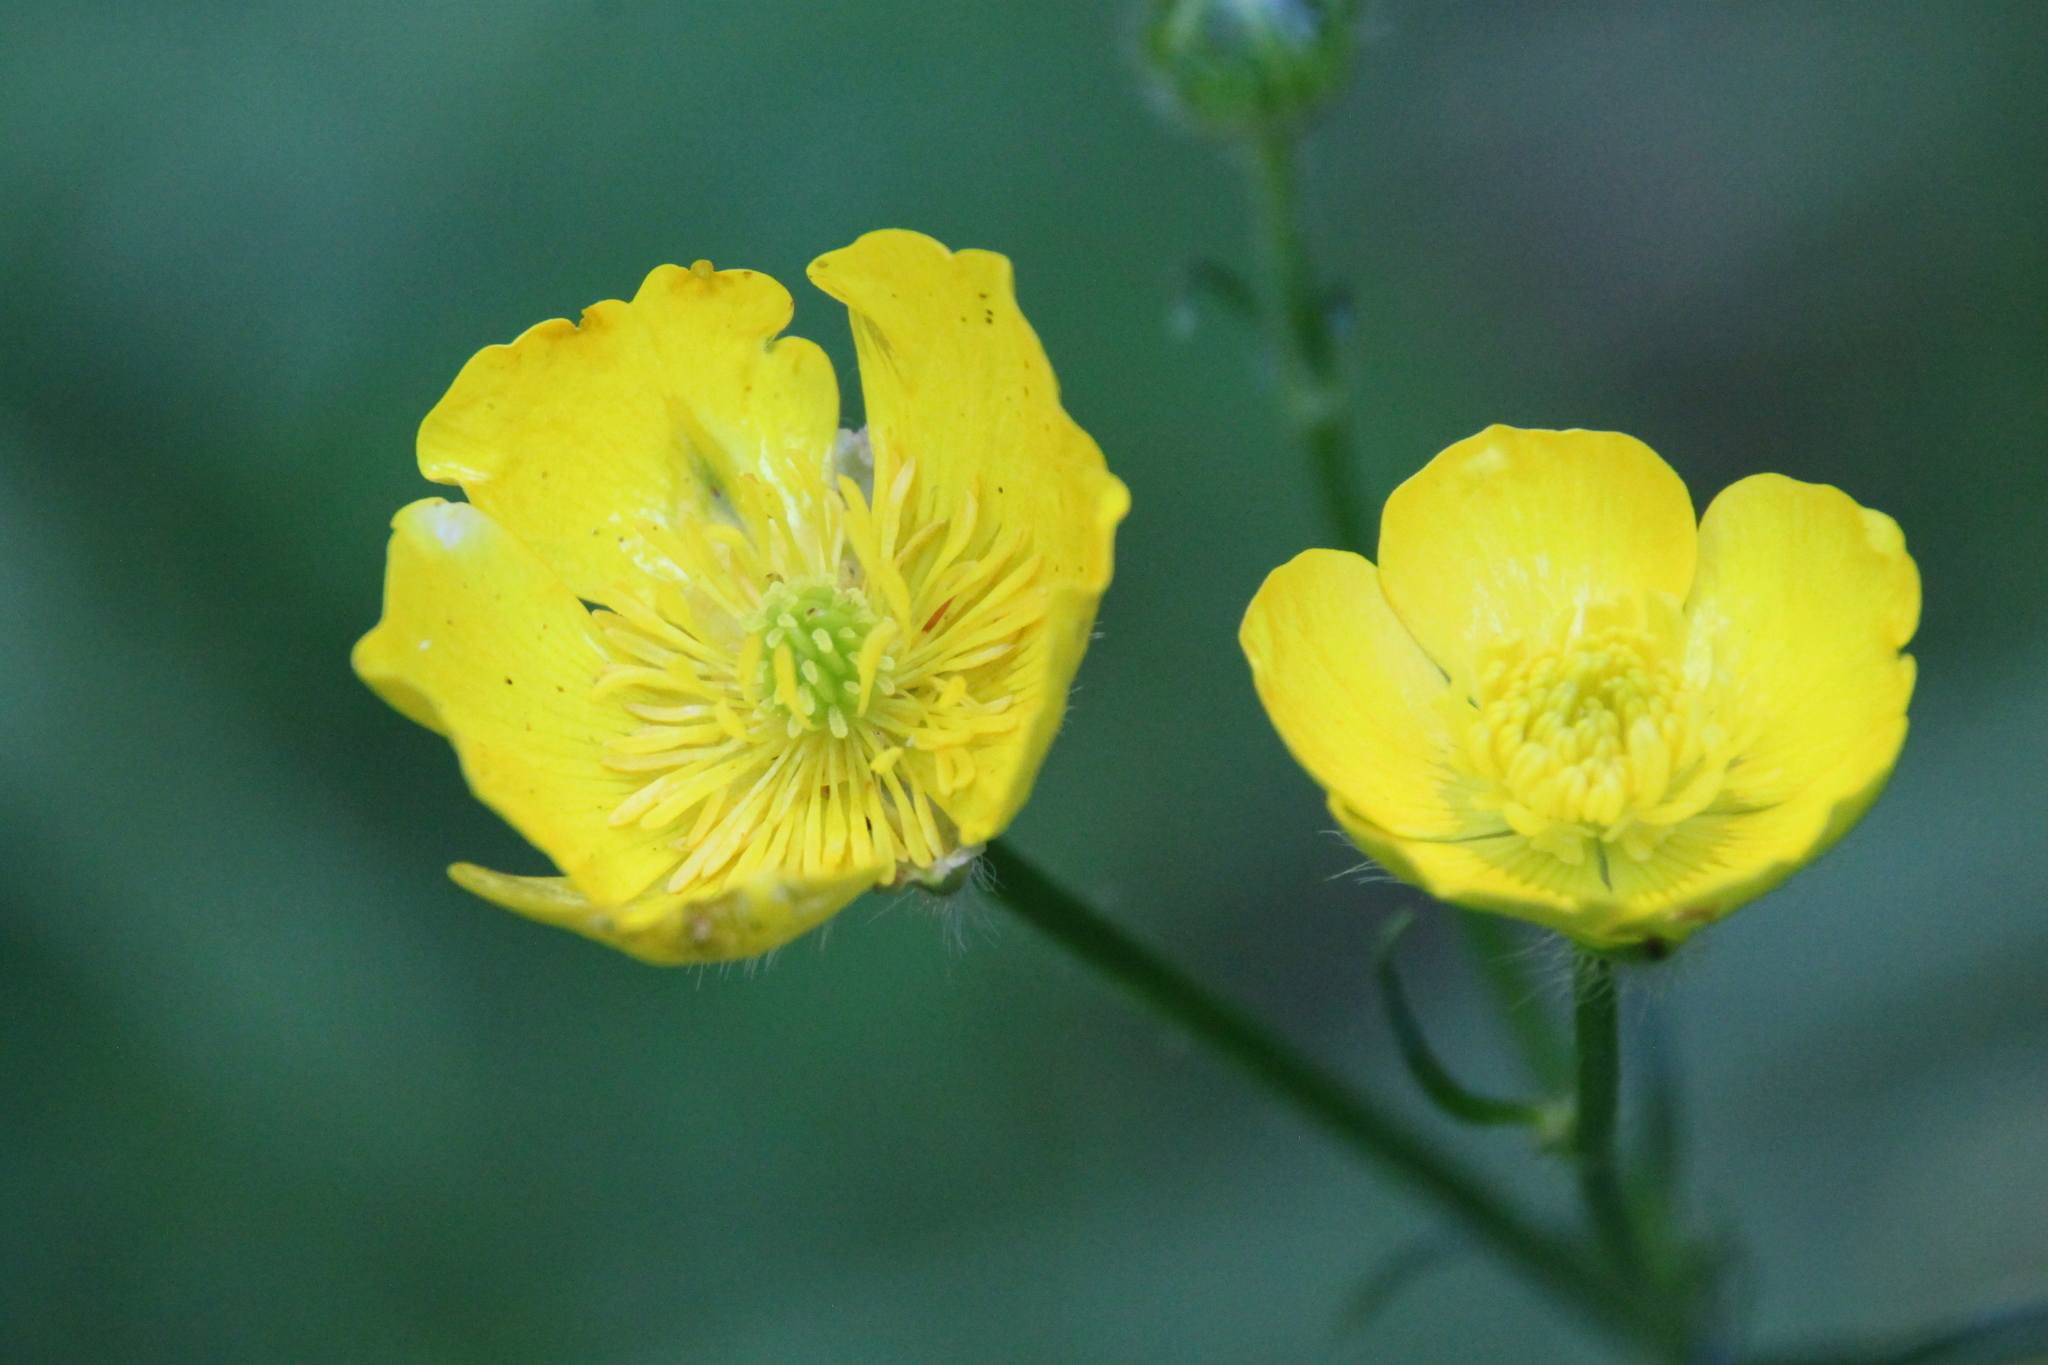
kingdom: Plantae
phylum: Tracheophyta
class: Magnoliopsida
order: Ranunculales
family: Ranunculaceae
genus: Ranunculus
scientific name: Ranunculus polyanthemos
